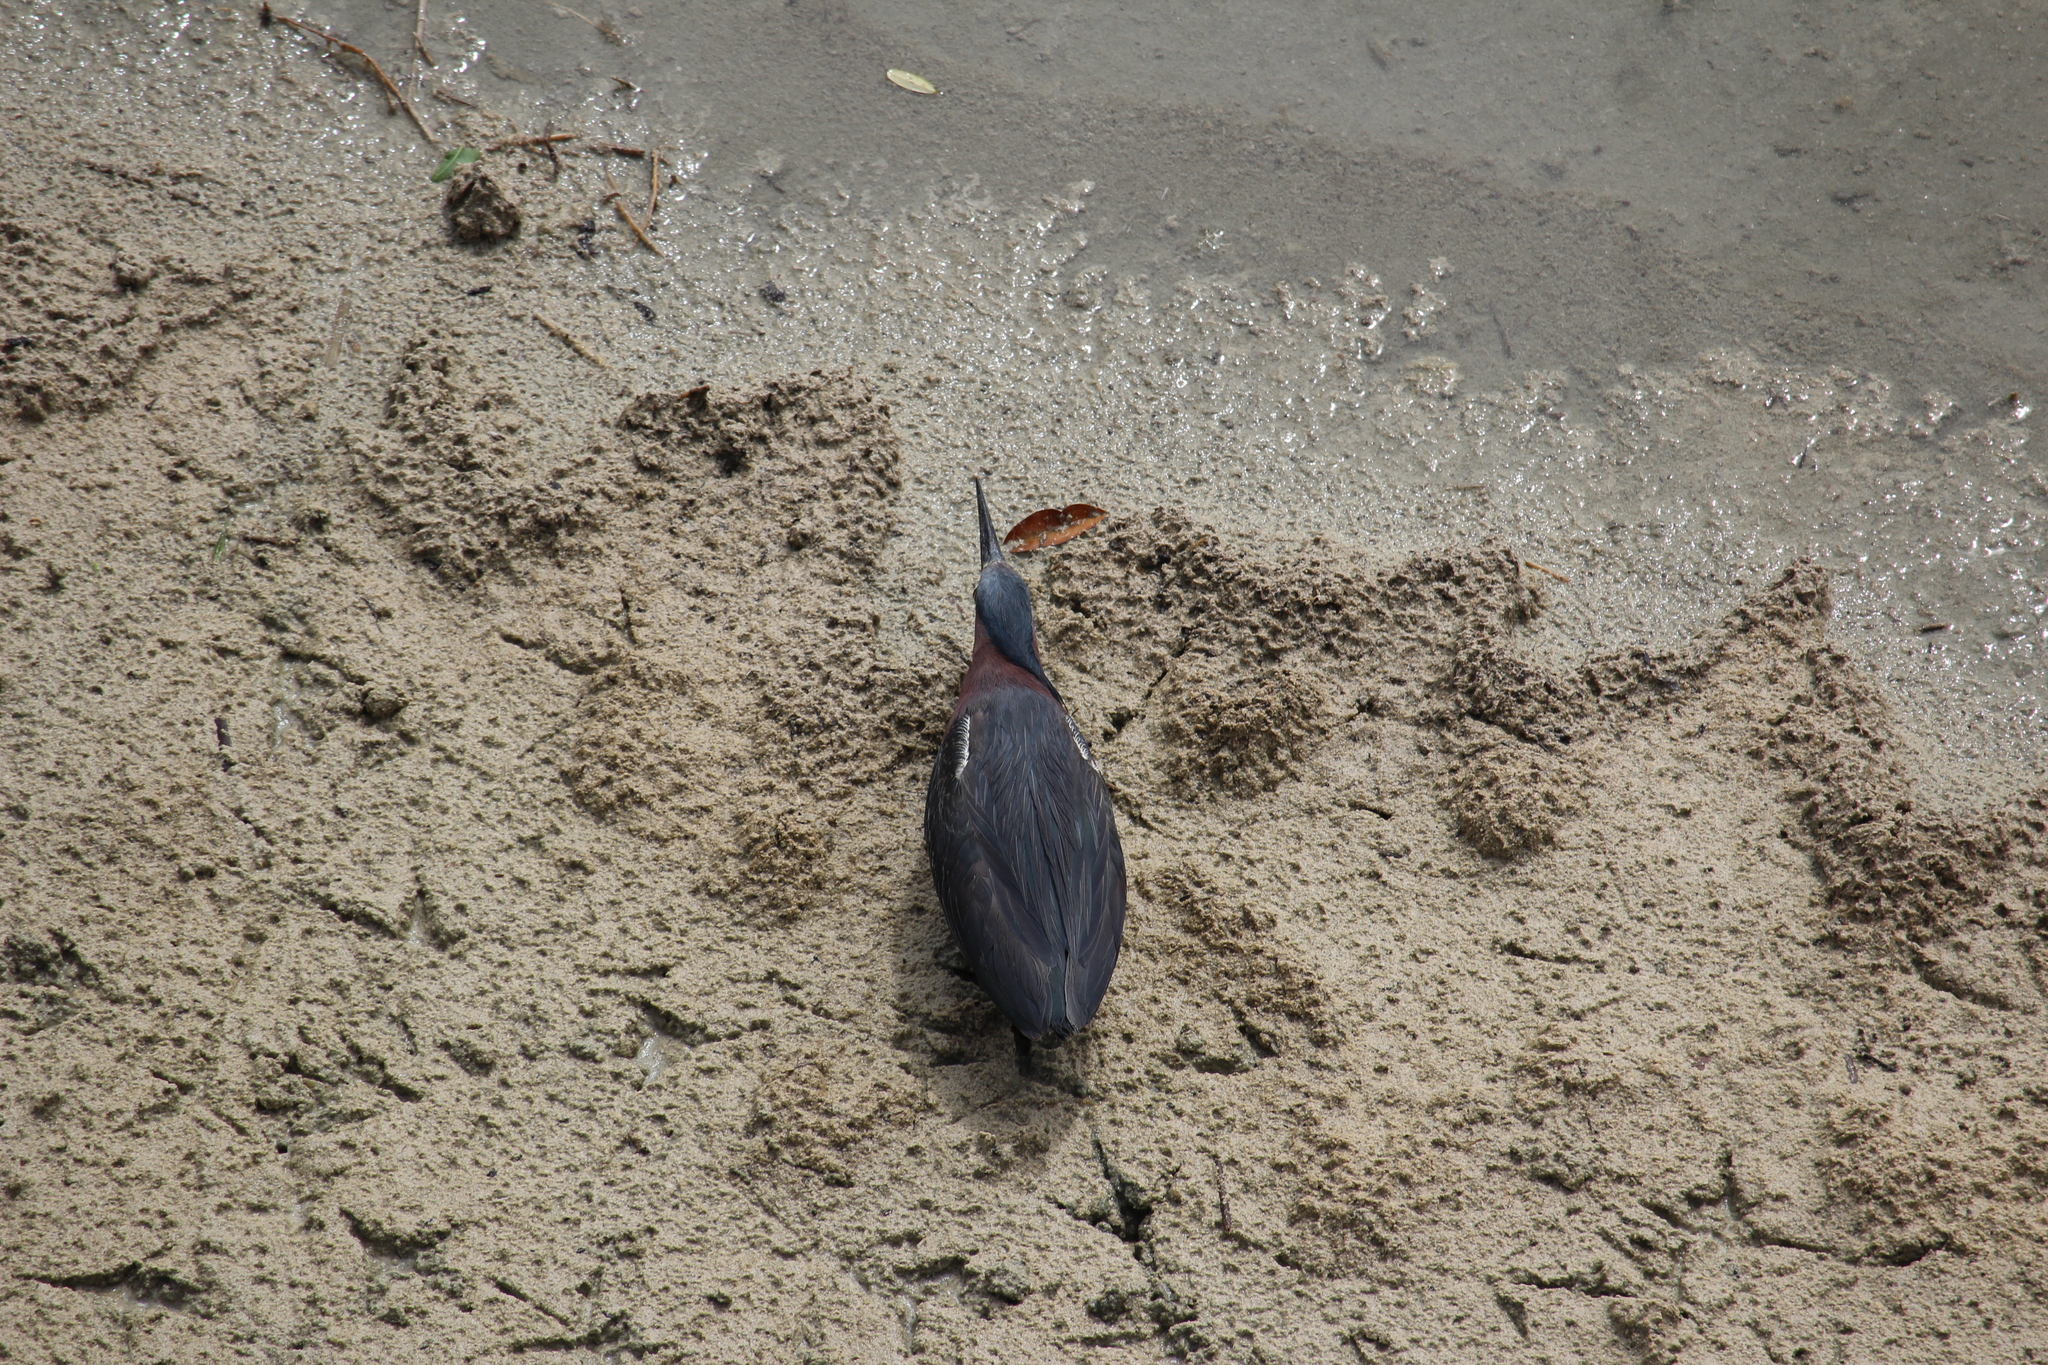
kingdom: Animalia
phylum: Chordata
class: Aves
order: Pelecaniformes
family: Ardeidae
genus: Butorides
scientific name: Butorides virescens
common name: Green heron
